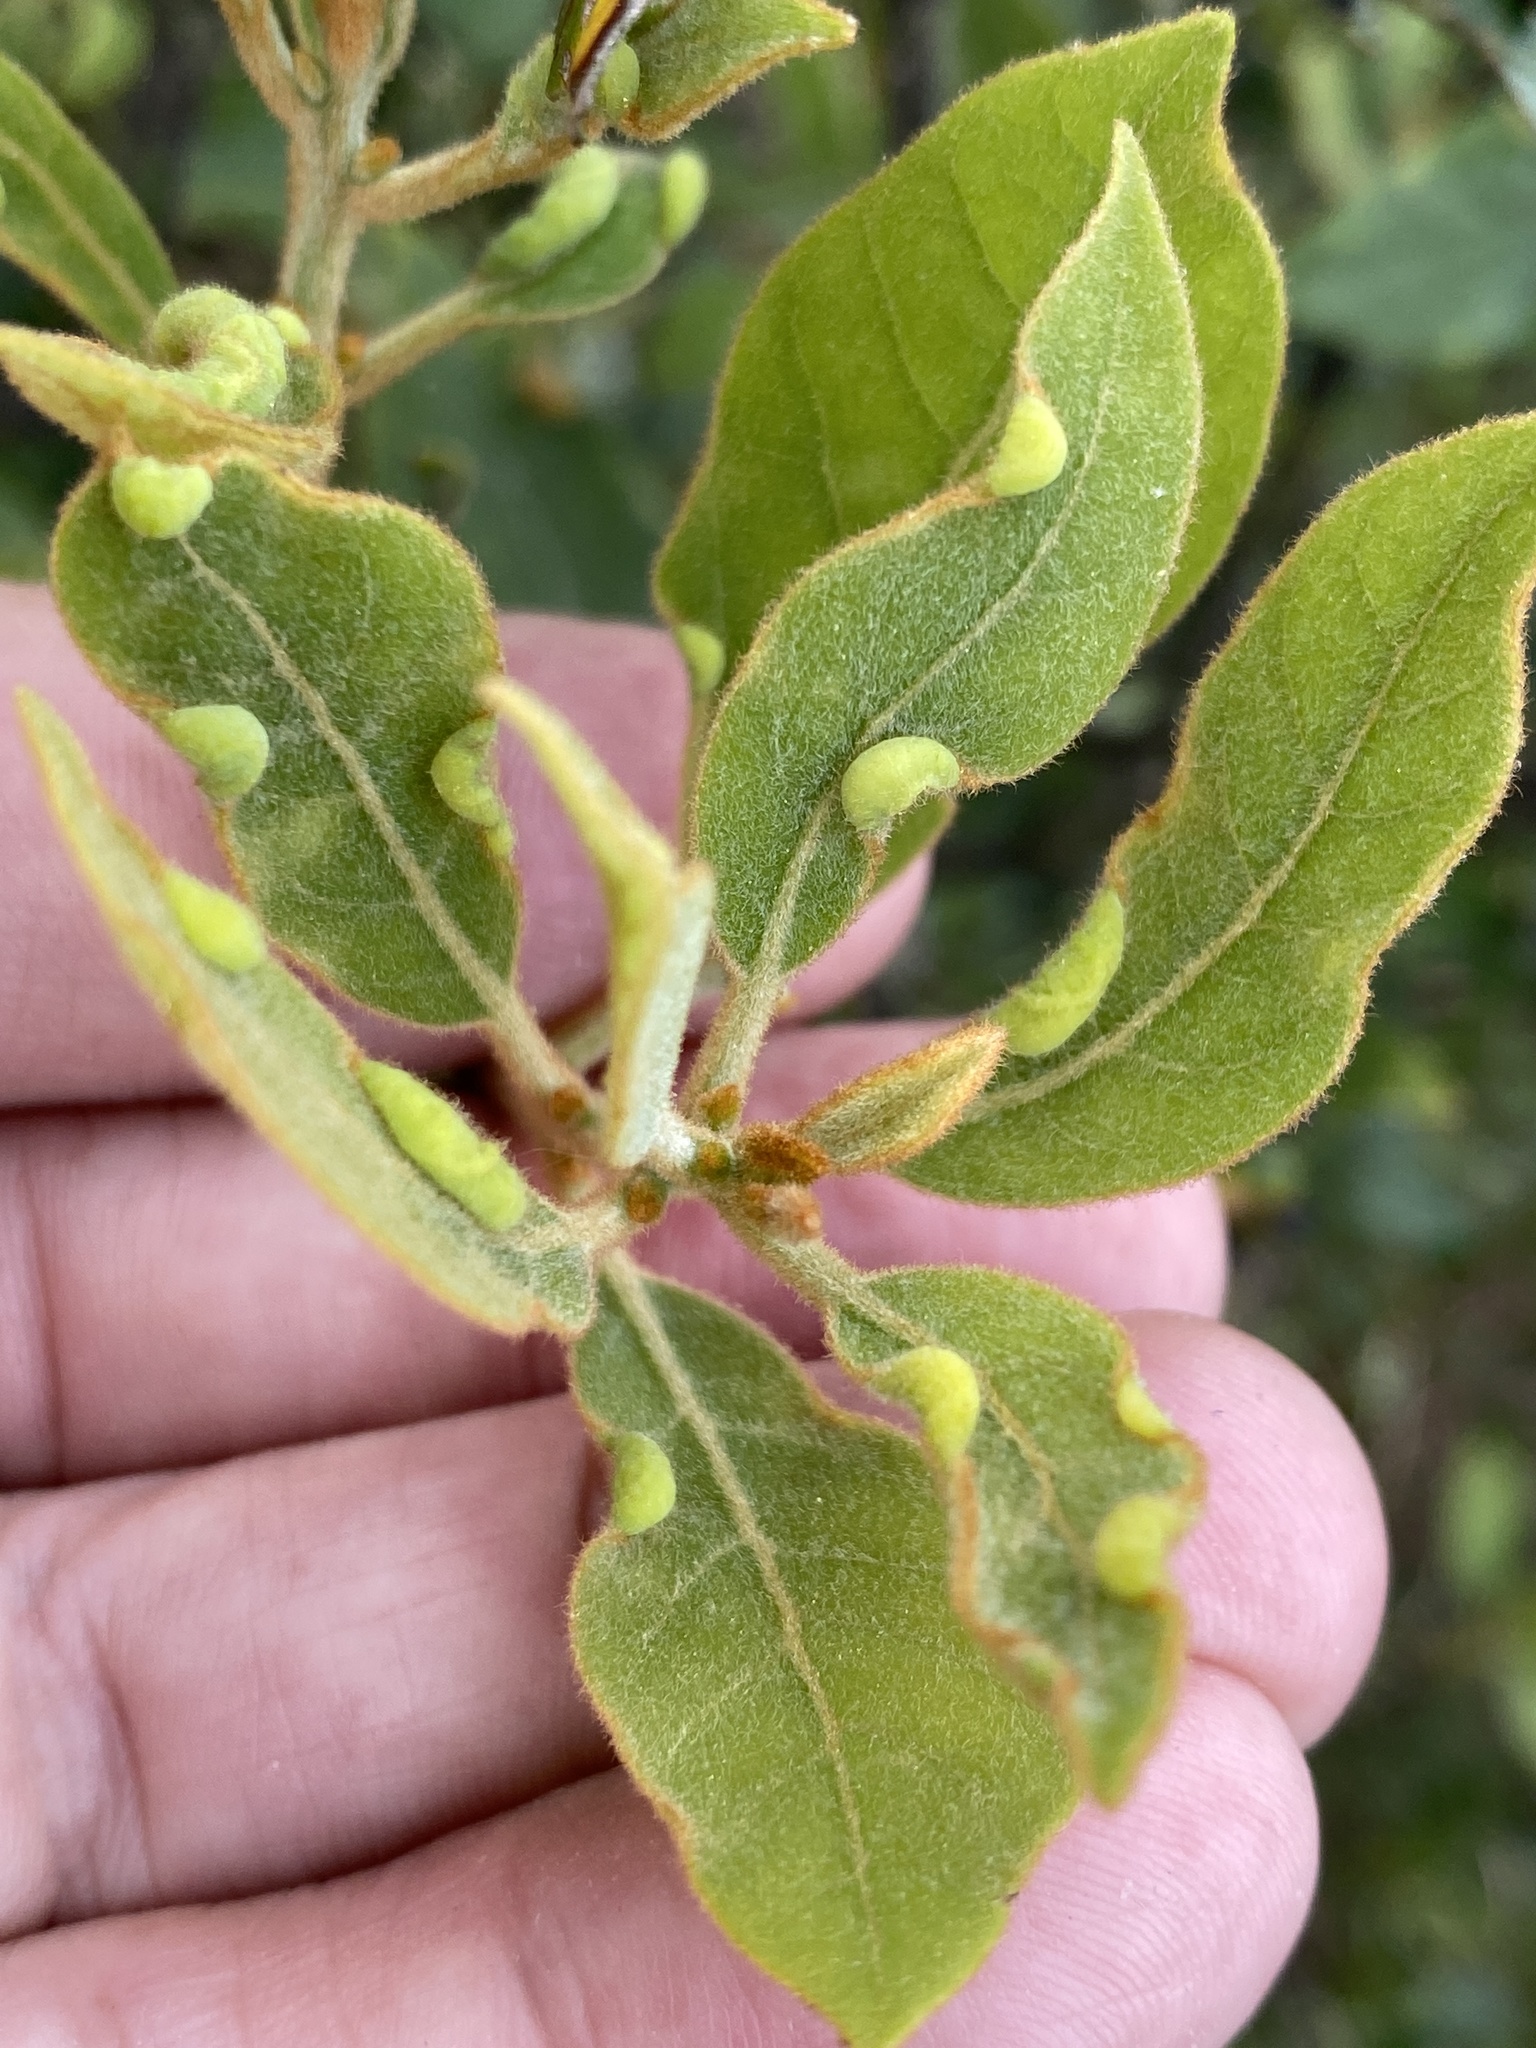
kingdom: Animalia
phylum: Arthropoda
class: Insecta
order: Hemiptera
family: Triozidae
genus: Trioza
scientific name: Trioza magnoliae
